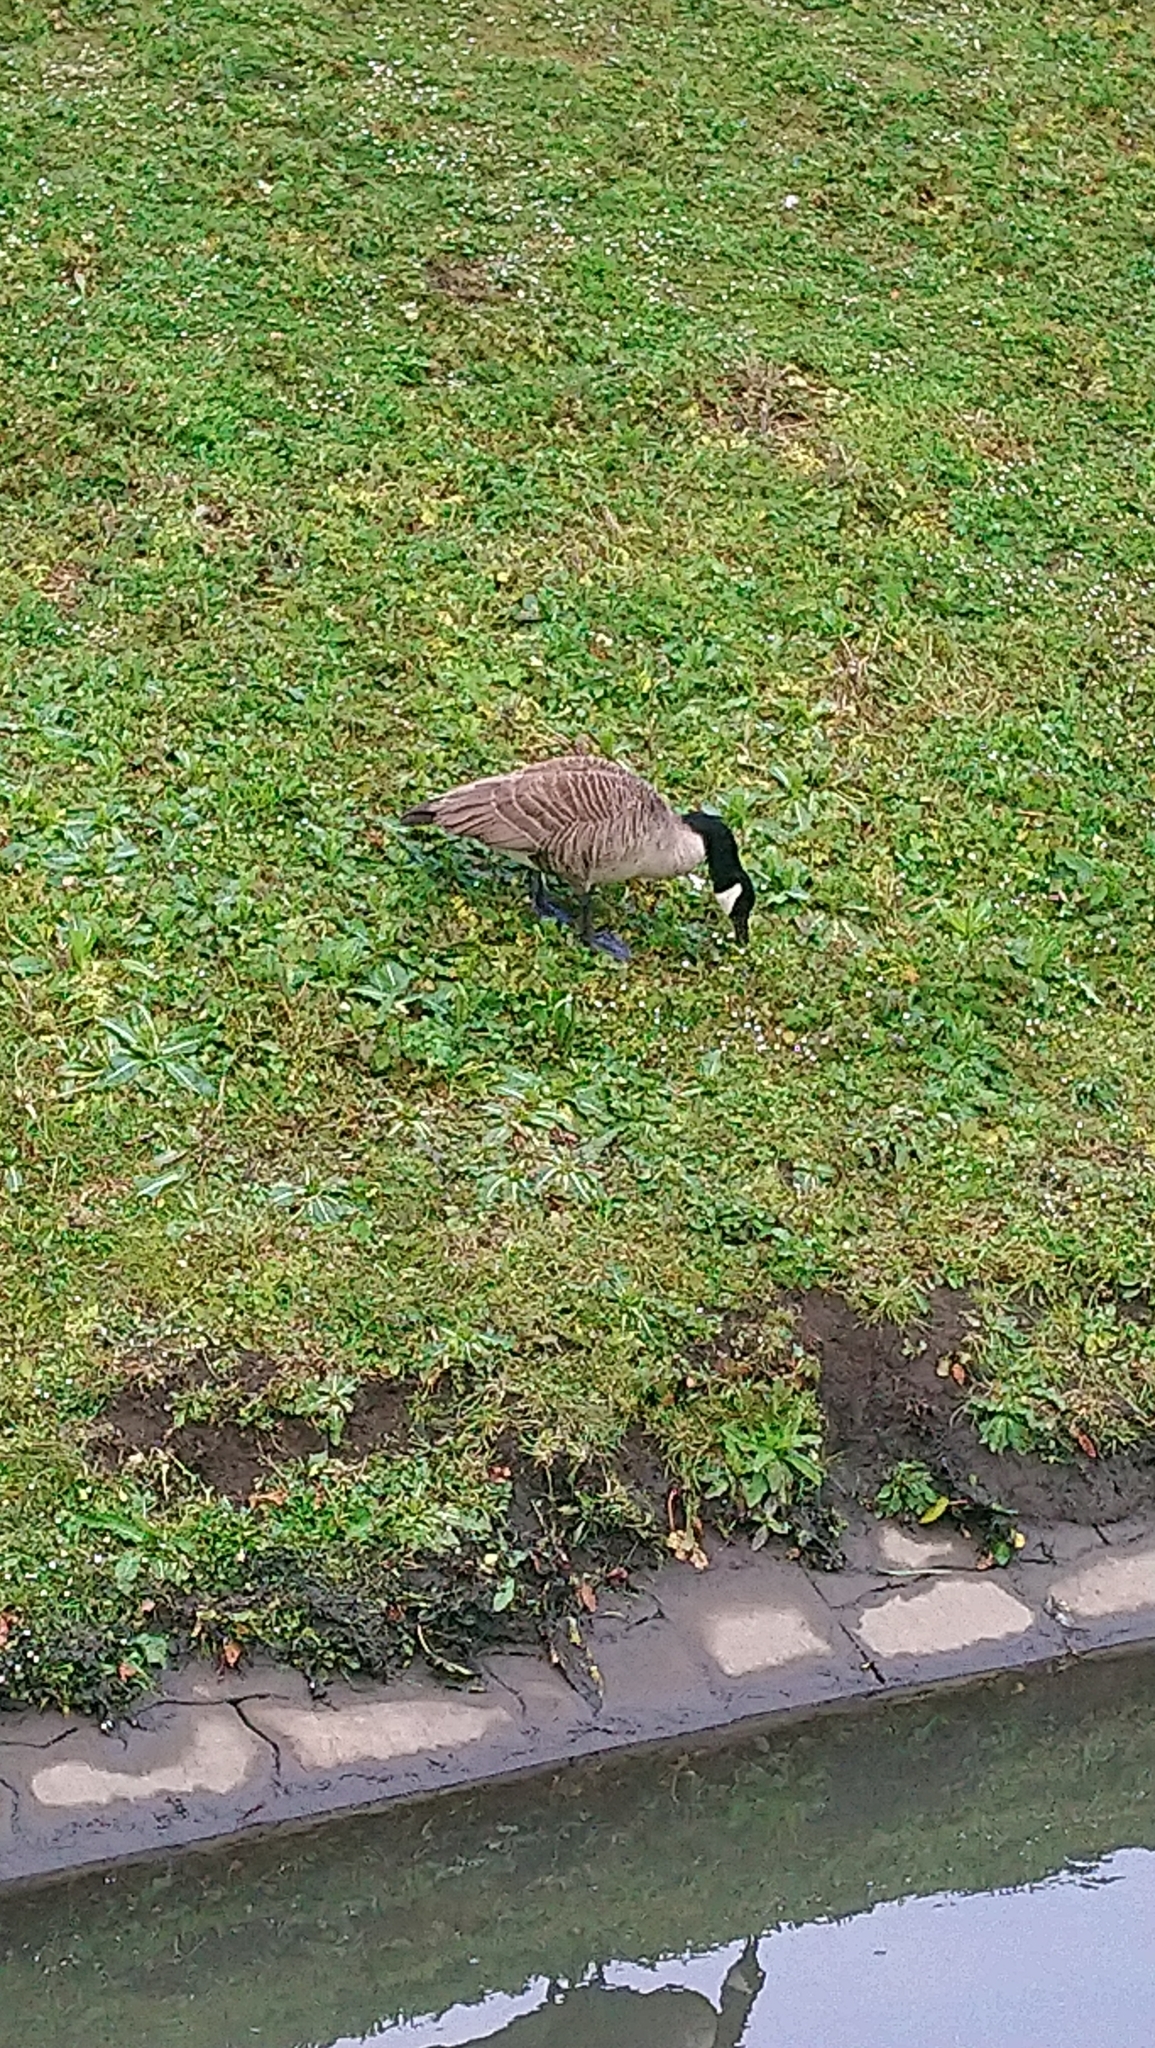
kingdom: Animalia
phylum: Chordata
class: Aves
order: Anseriformes
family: Anatidae
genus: Branta
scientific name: Branta canadensis
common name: Canada goose
